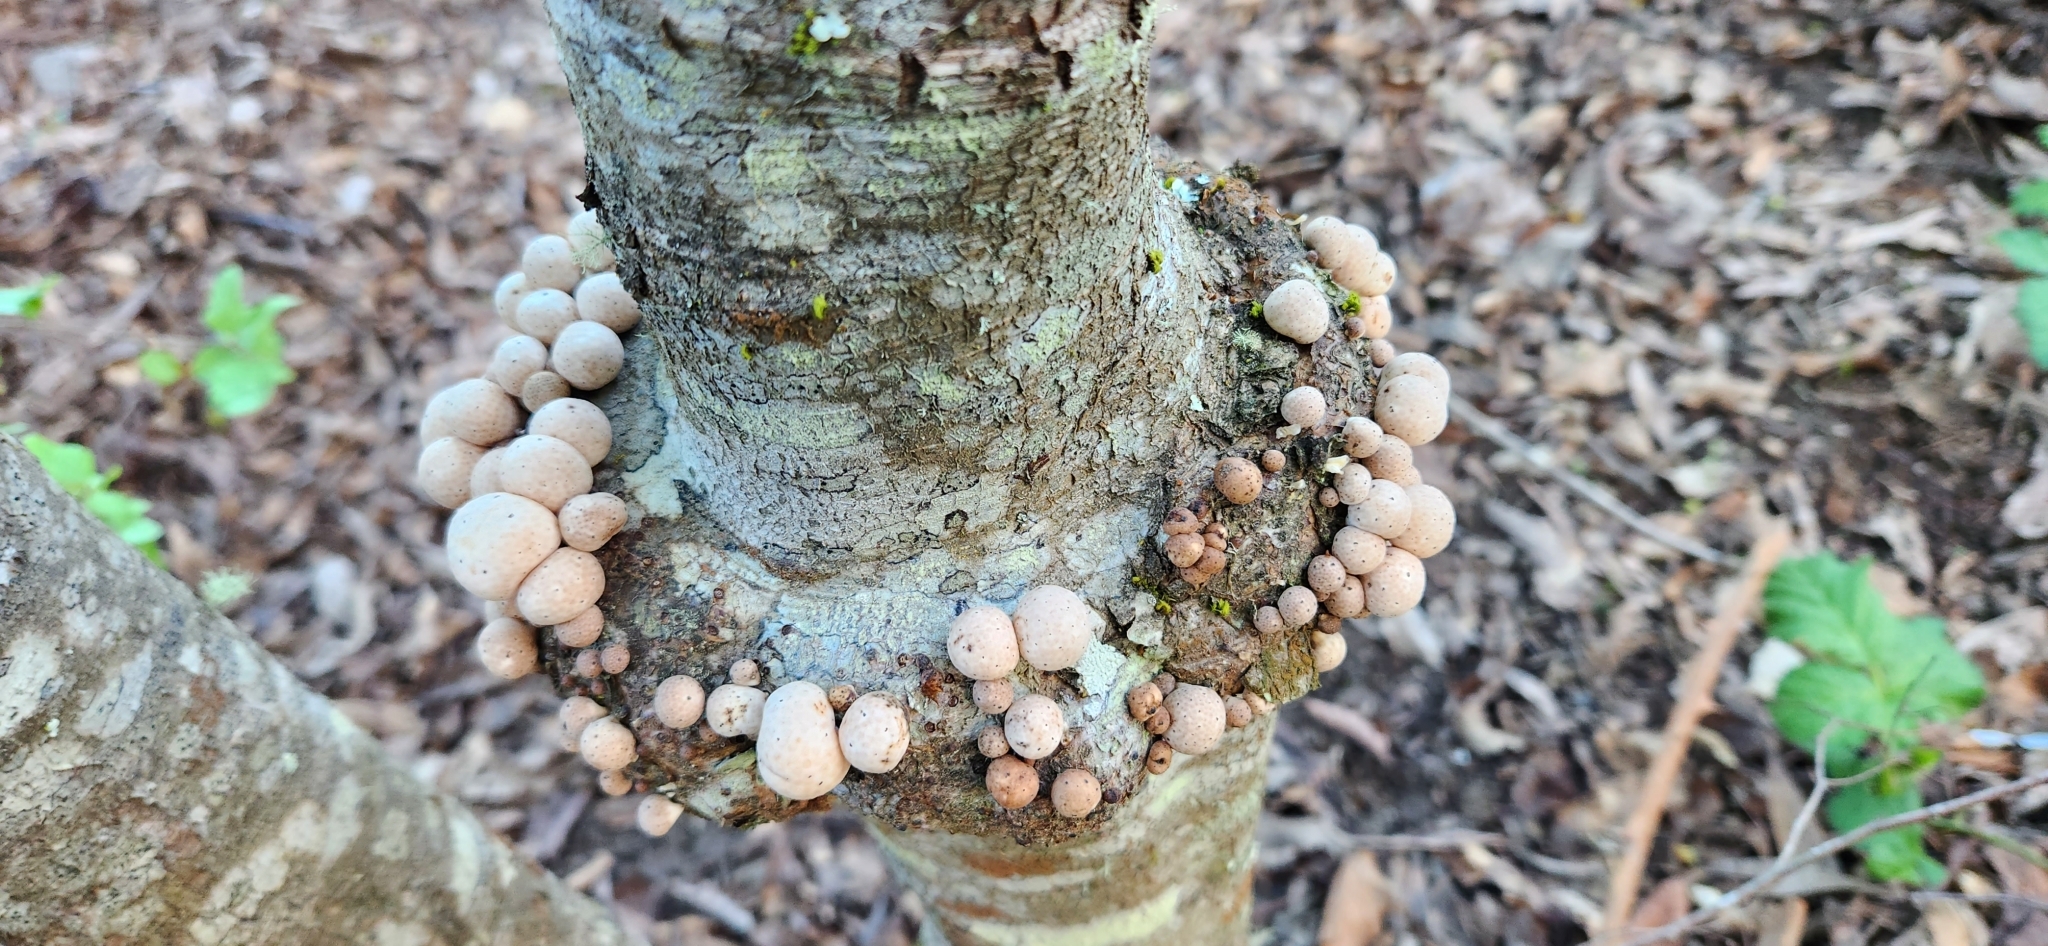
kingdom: Fungi
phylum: Ascomycota
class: Leotiomycetes
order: Cyttariales
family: Cyttariaceae
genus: Cyttaria
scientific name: Cyttaria espinosae
